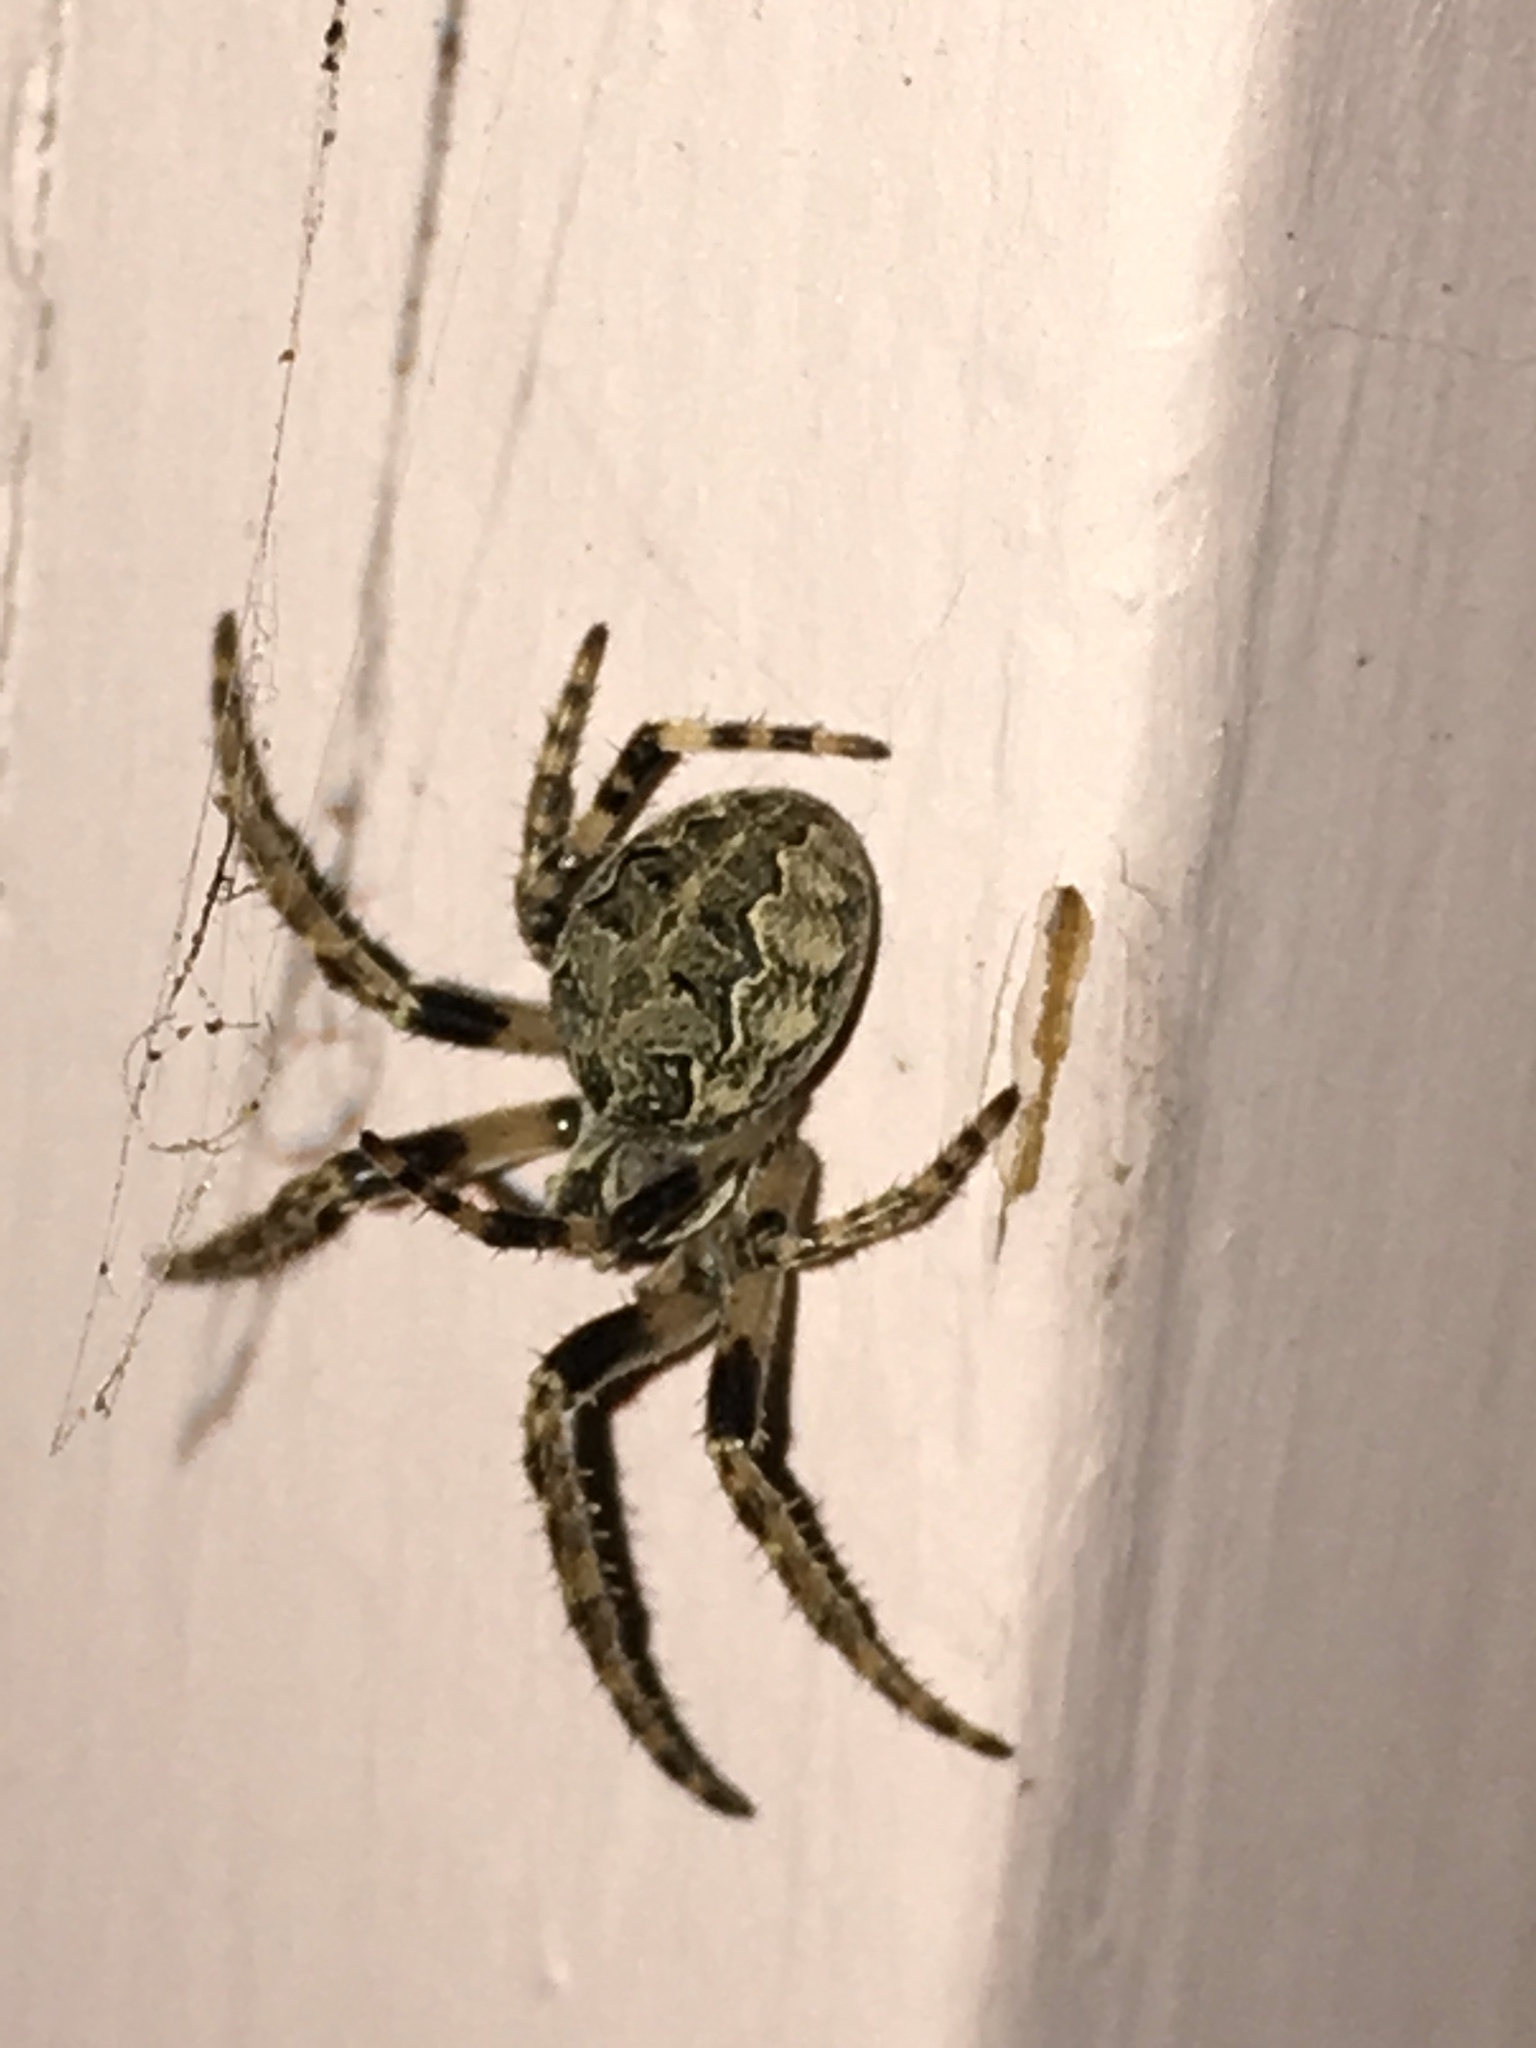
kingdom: Animalia
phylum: Arthropoda
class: Arachnida
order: Araneae
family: Araneidae
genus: Larinioides
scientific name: Larinioides sclopetarius
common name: Bridge orbweaver
